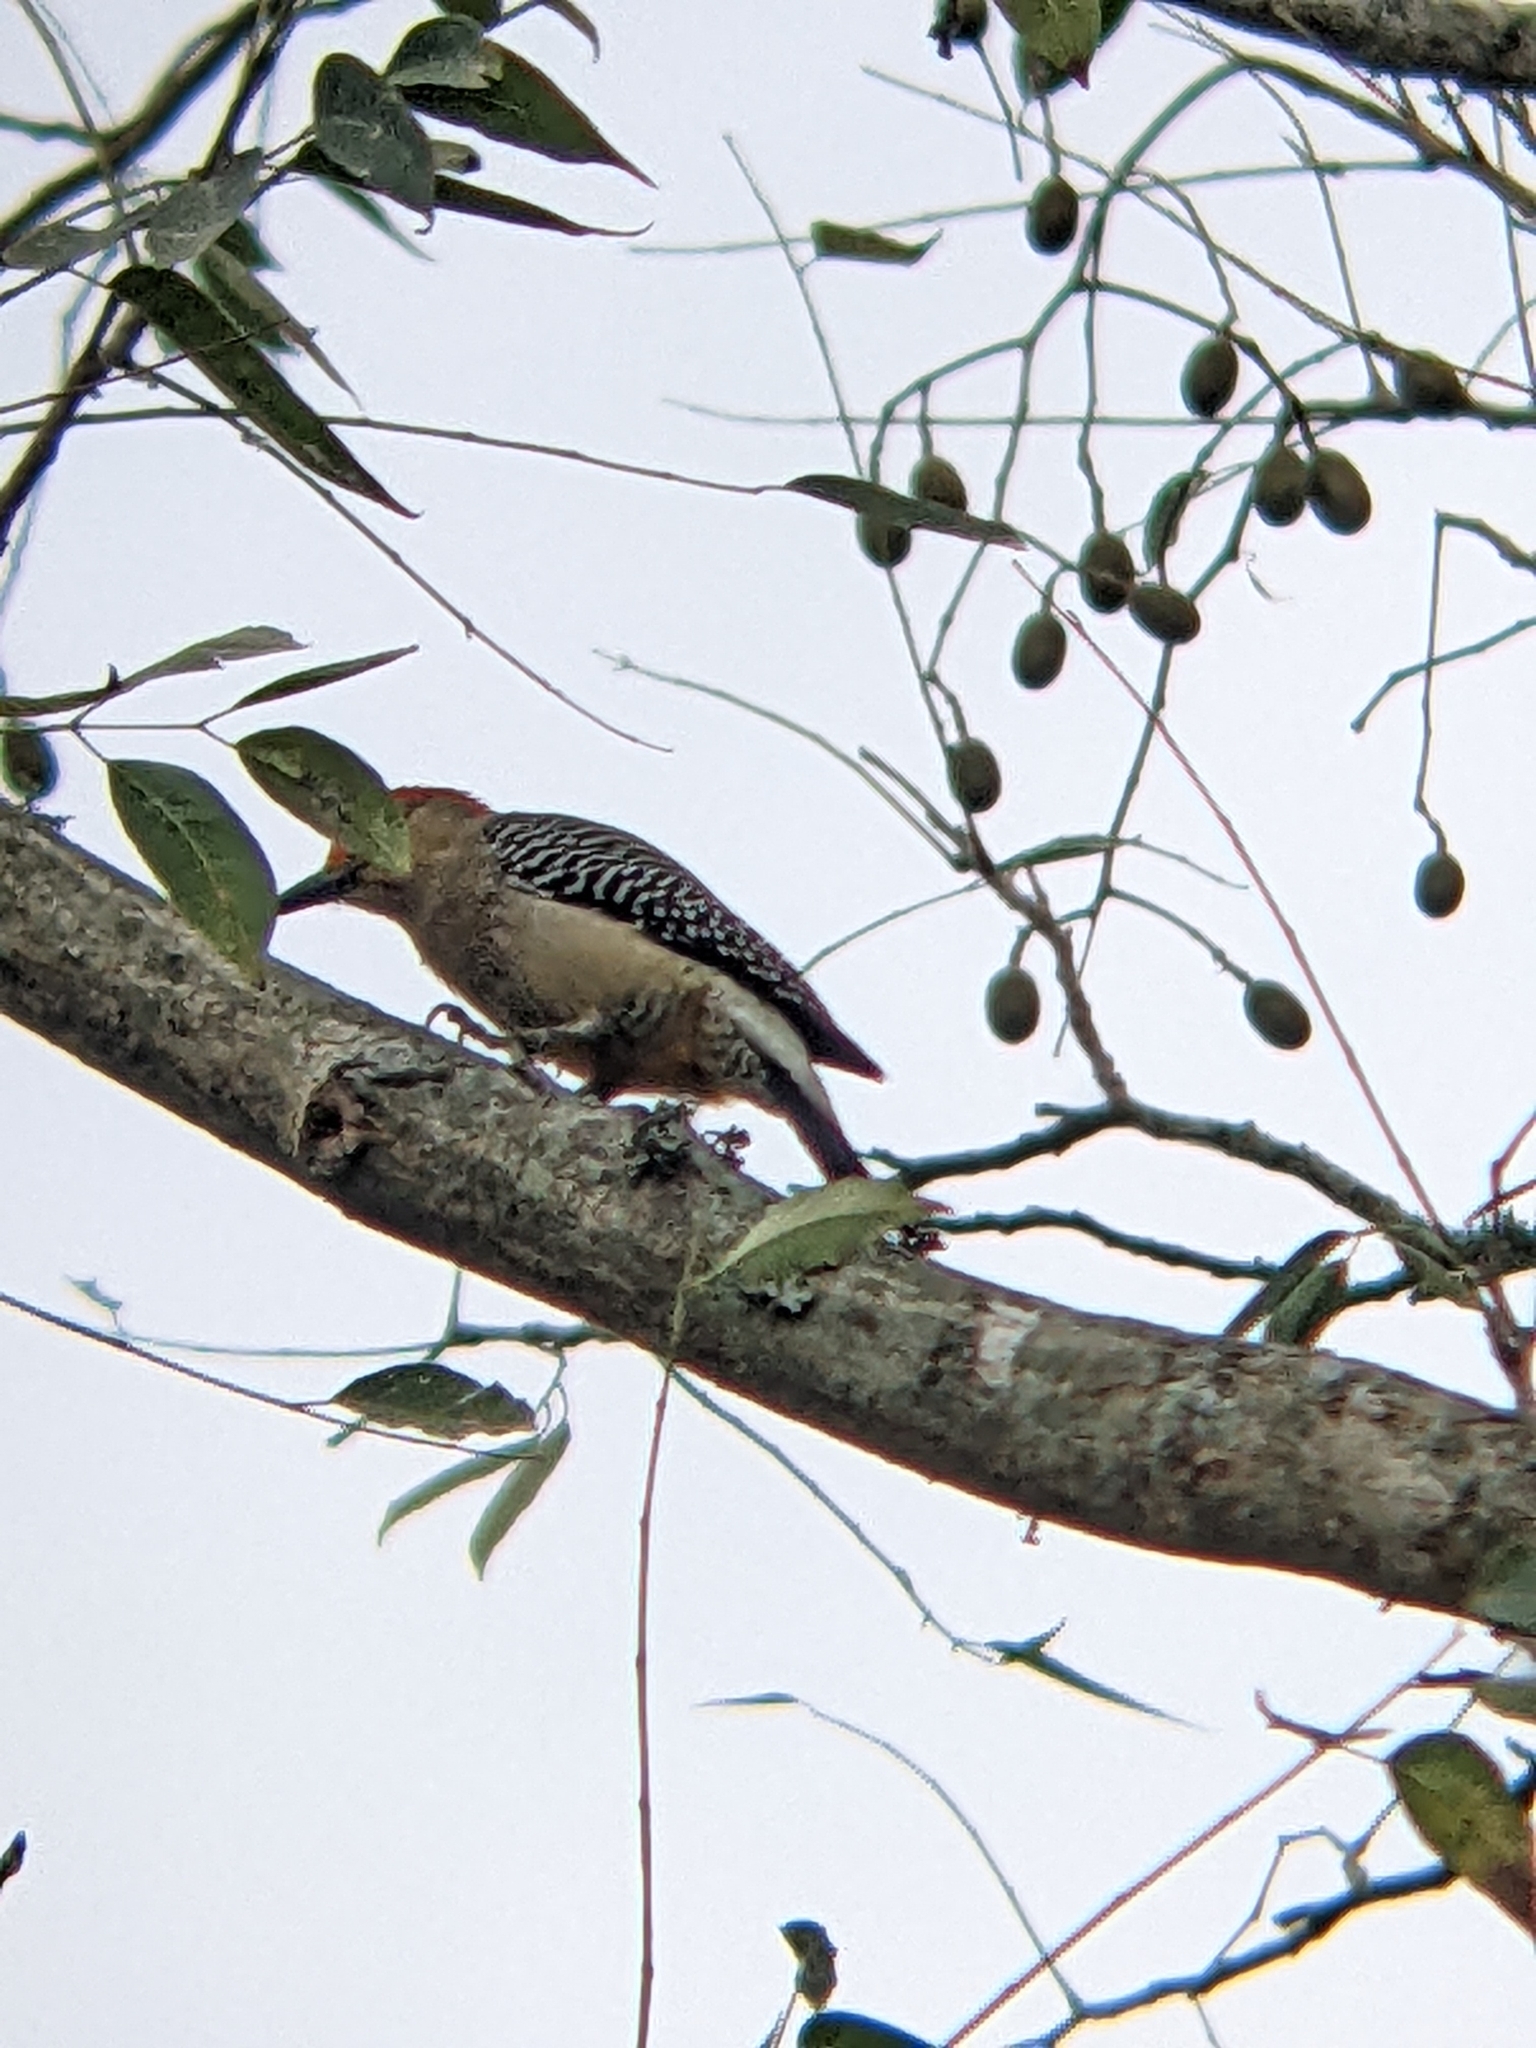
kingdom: Animalia
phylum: Chordata
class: Aves
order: Piciformes
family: Picidae
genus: Melanerpes
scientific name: Melanerpes aurifrons
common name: Golden-fronted woodpecker
